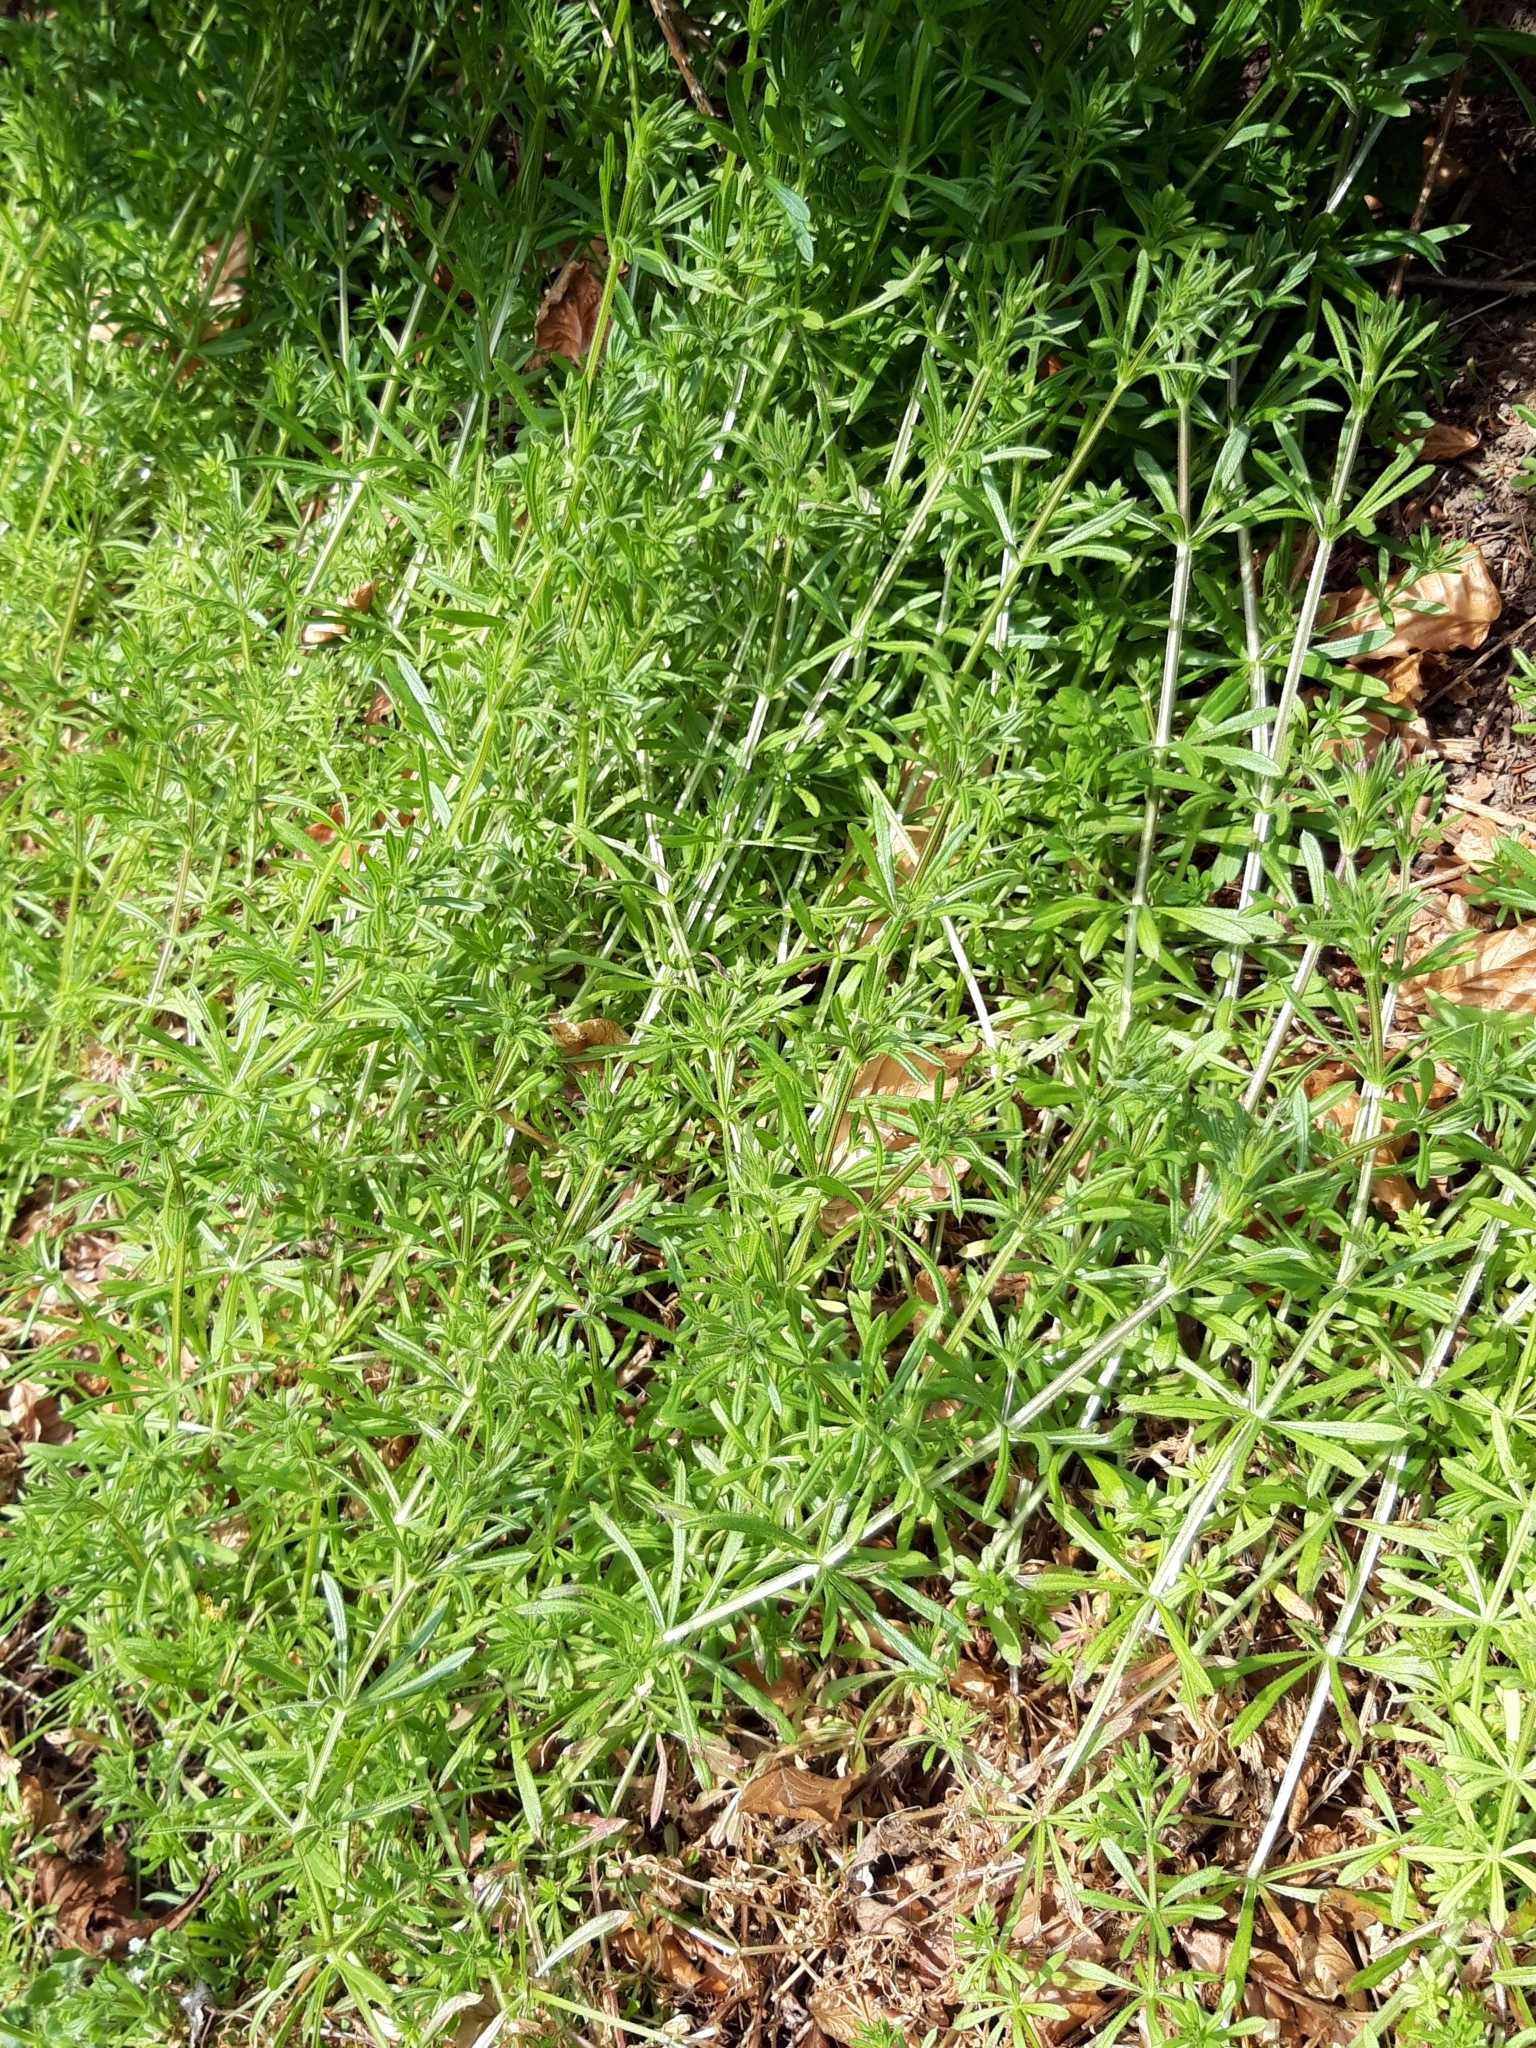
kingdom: Plantae
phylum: Tracheophyta
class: Magnoliopsida
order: Gentianales
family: Rubiaceae
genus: Galium
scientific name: Galium aparine
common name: Cleavers
